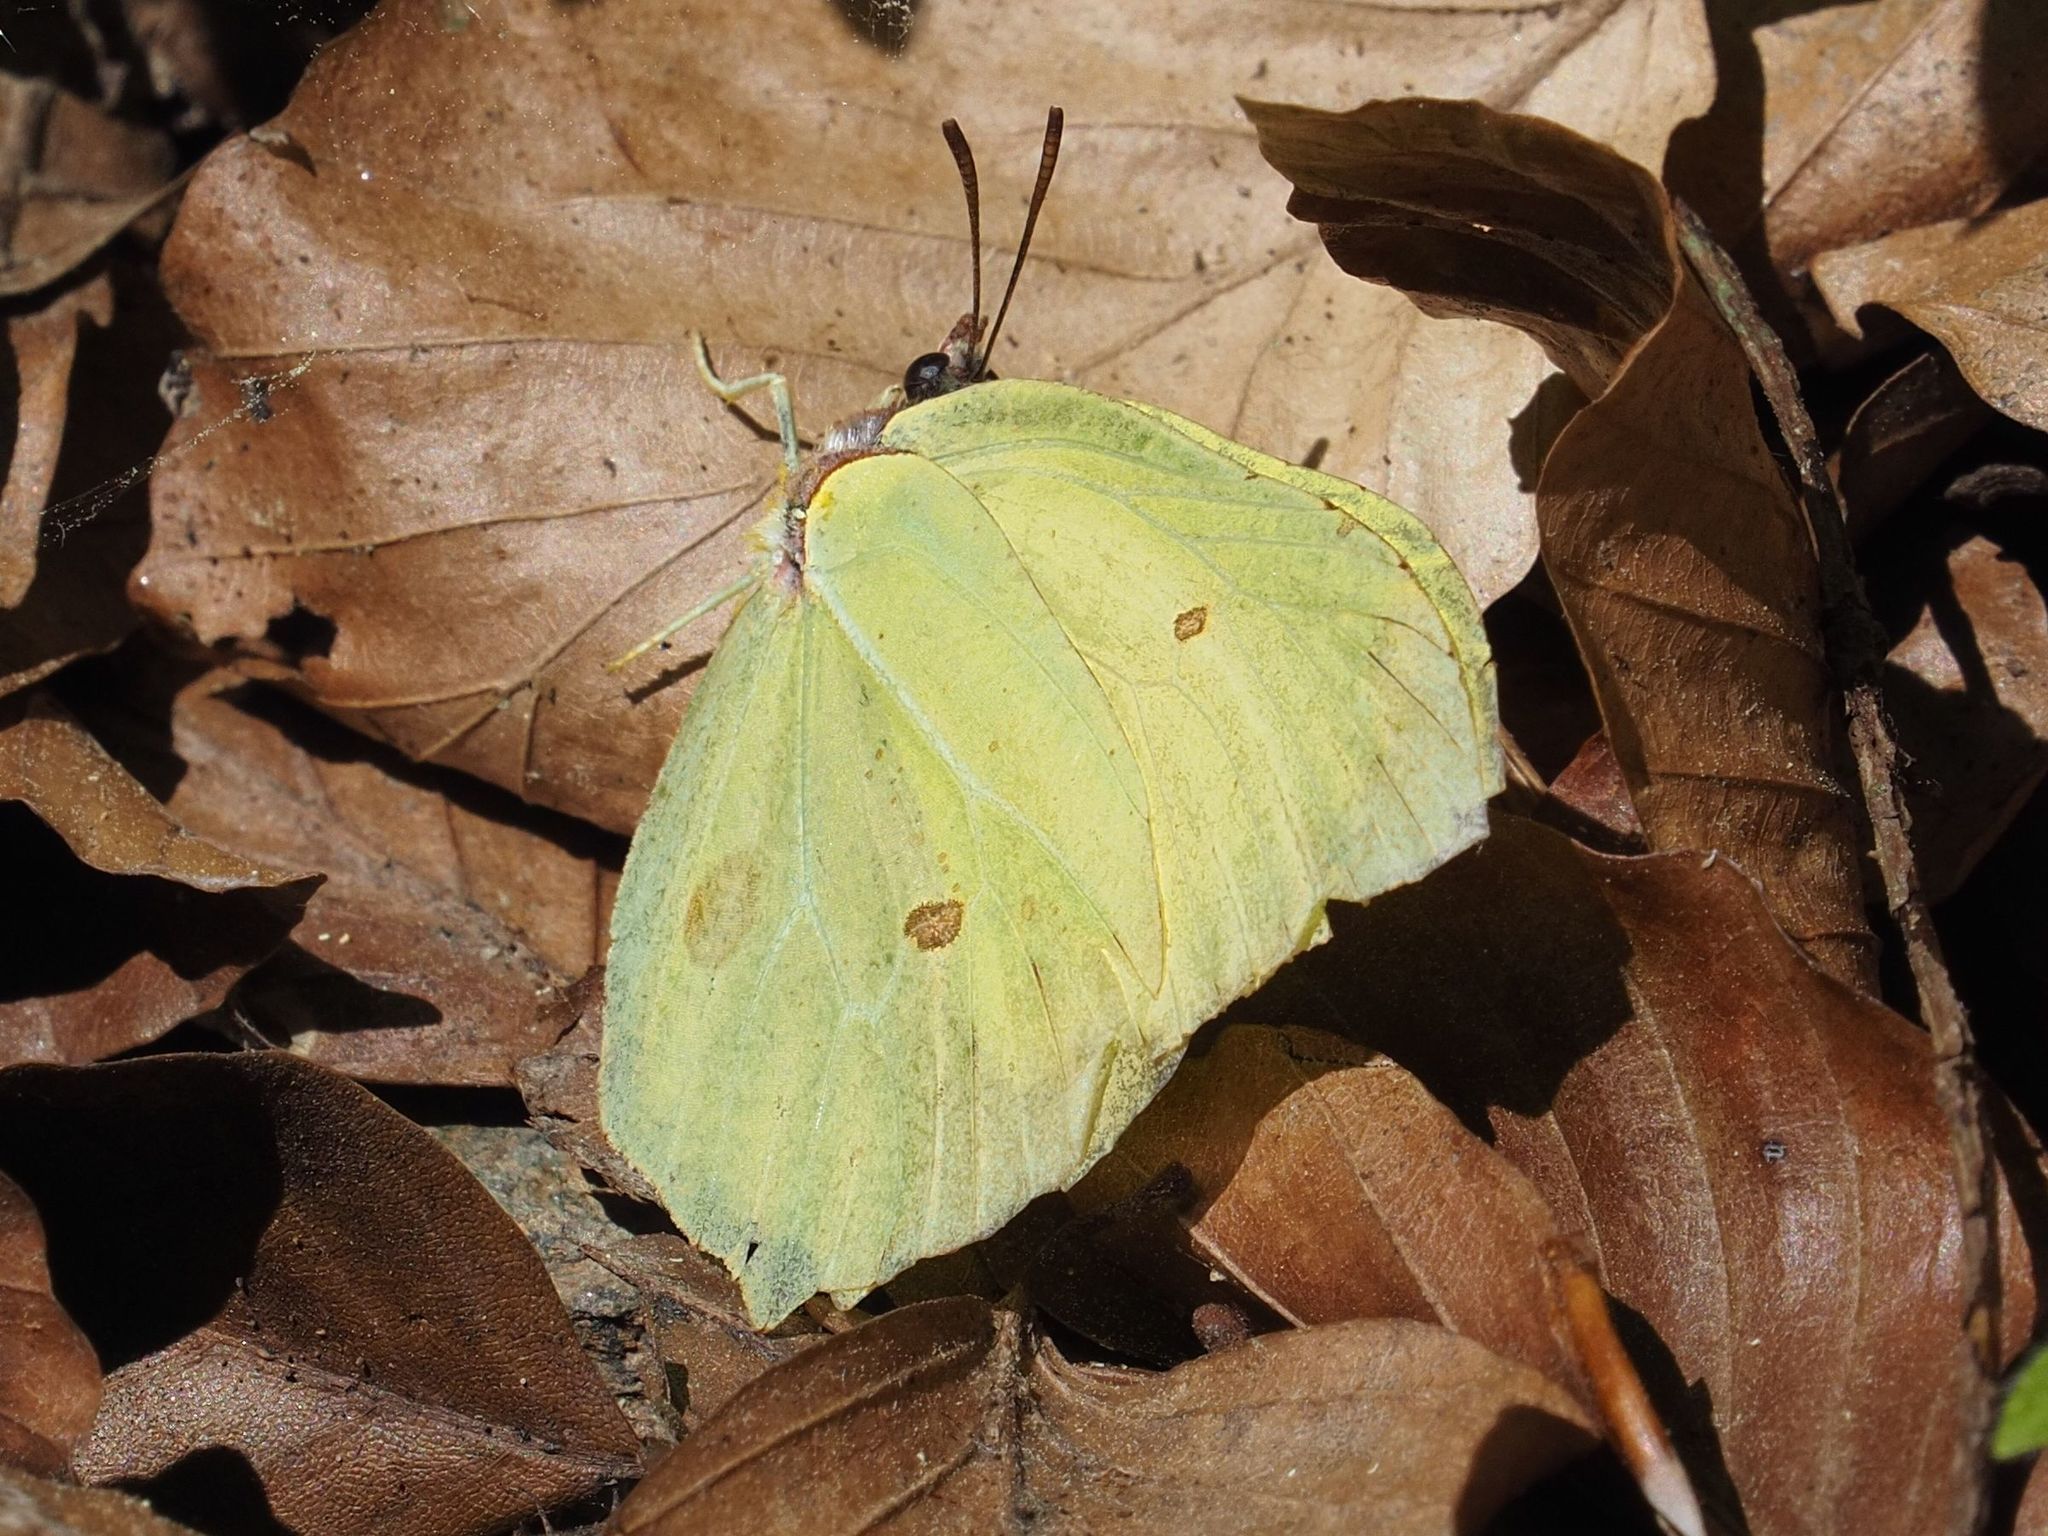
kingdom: Animalia
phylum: Arthropoda
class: Insecta
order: Lepidoptera
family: Pieridae
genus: Gonepteryx
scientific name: Gonepteryx rhamni
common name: Brimstone
